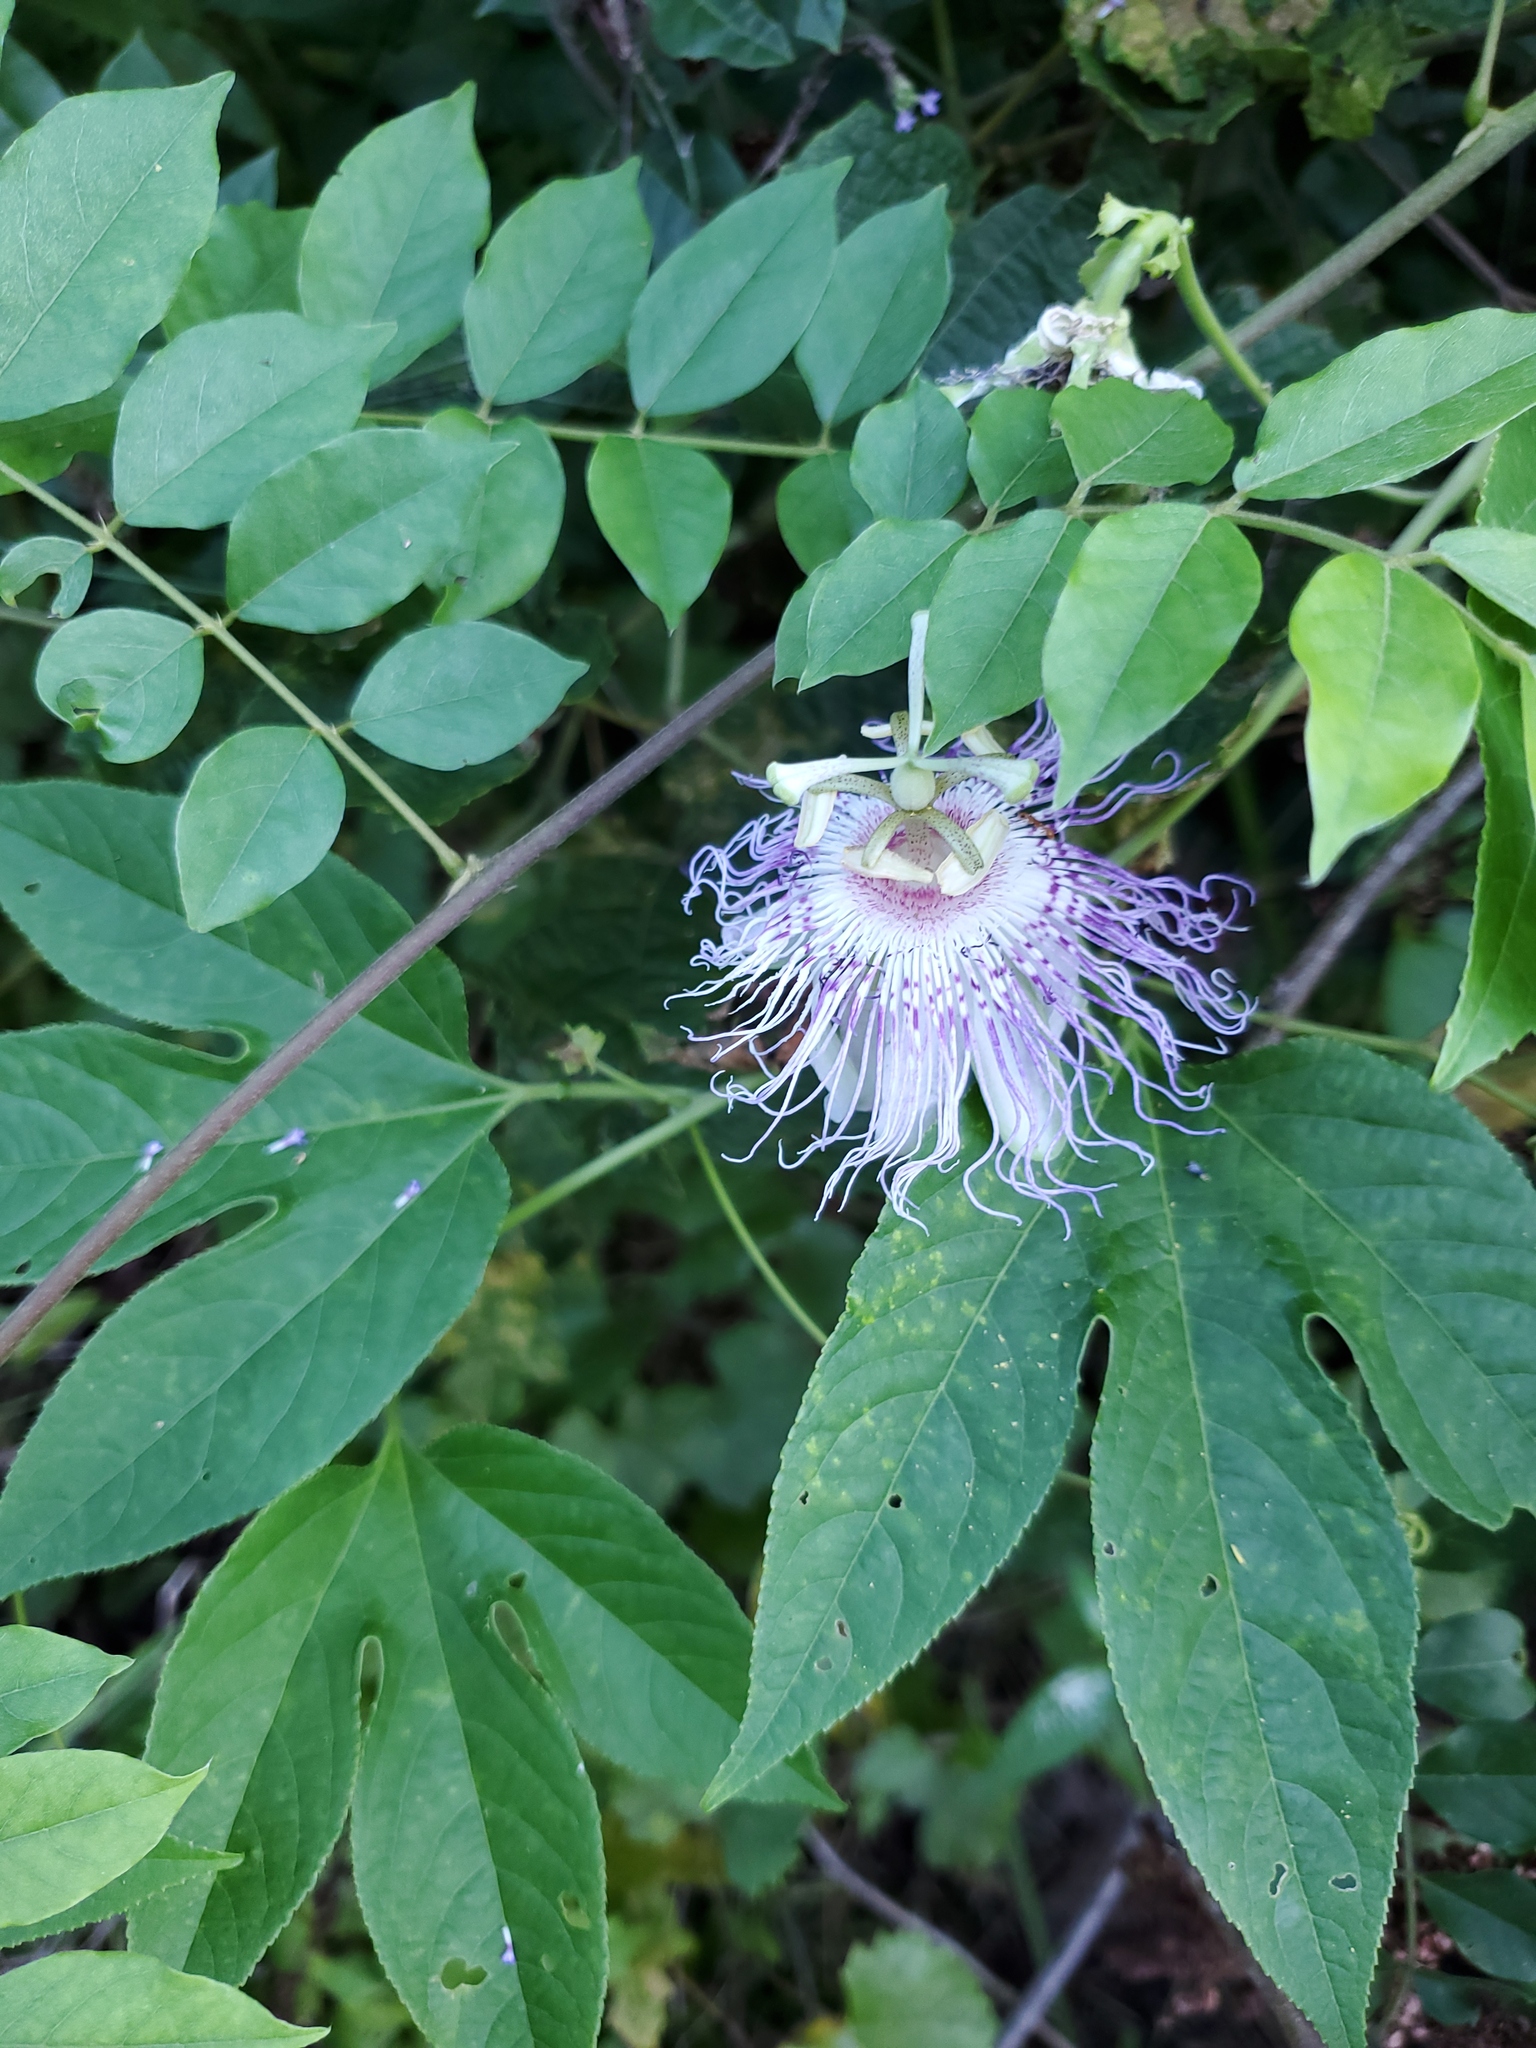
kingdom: Plantae
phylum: Tracheophyta
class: Magnoliopsida
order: Malpighiales
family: Passifloraceae
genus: Passiflora
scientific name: Passiflora incarnata
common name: Apricot-vine
